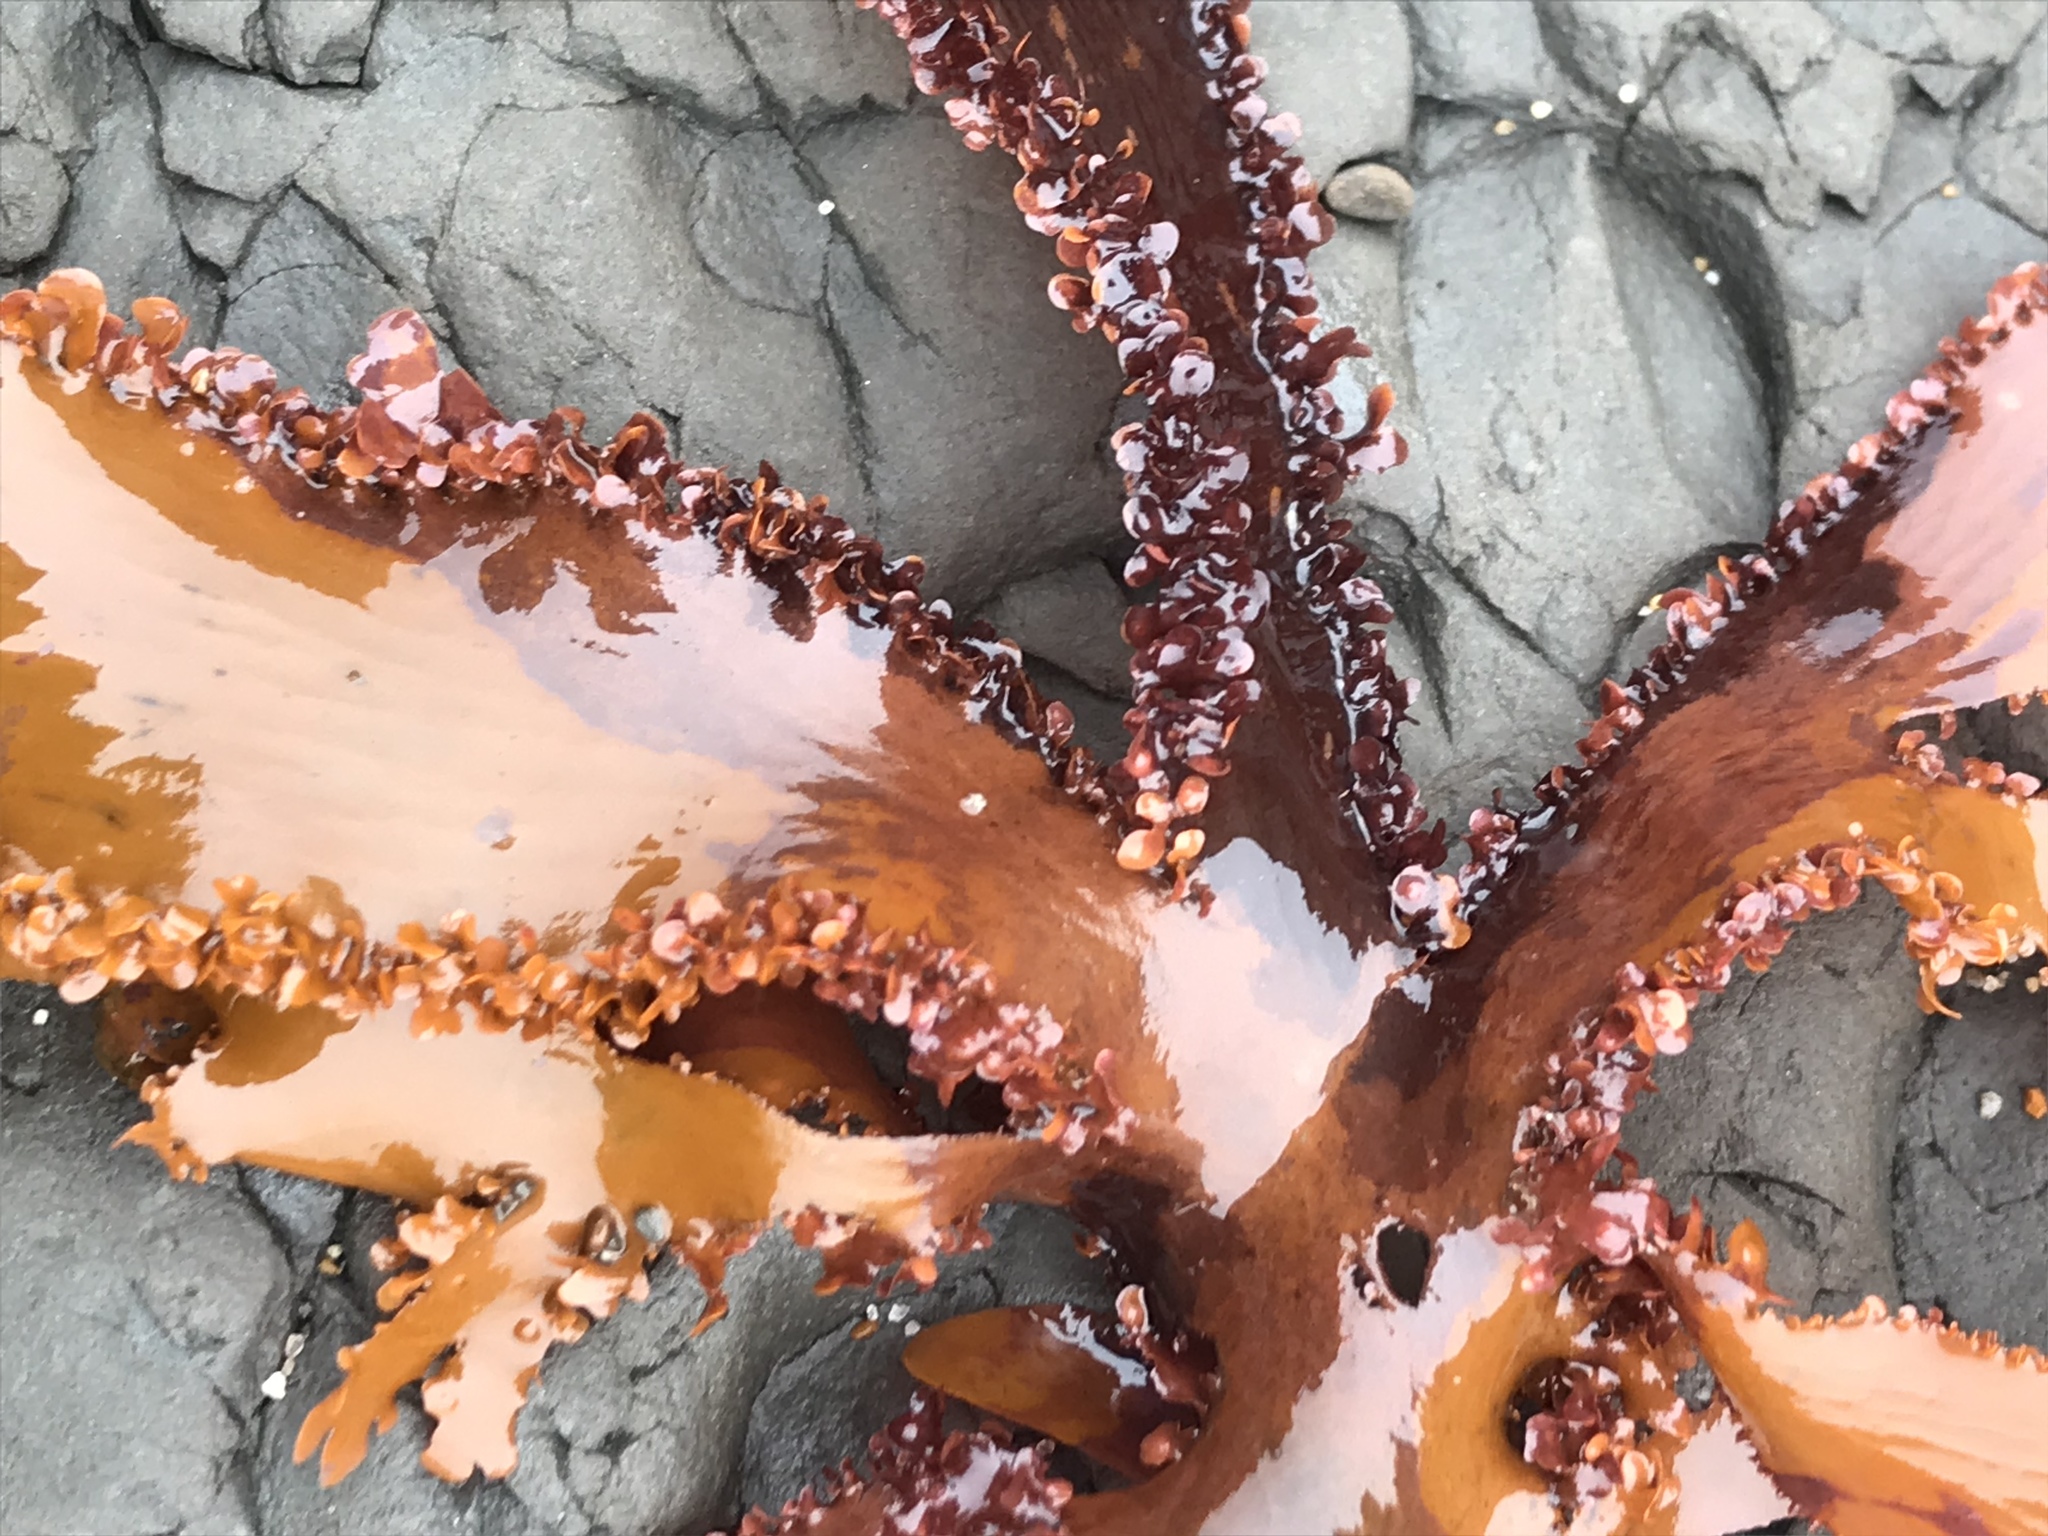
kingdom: Plantae
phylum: Rhodophyta
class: Florideophyceae
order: Ceramiales
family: Delesseriaceae
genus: Cryptopleura
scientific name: Cryptopleura ruprechtiana
